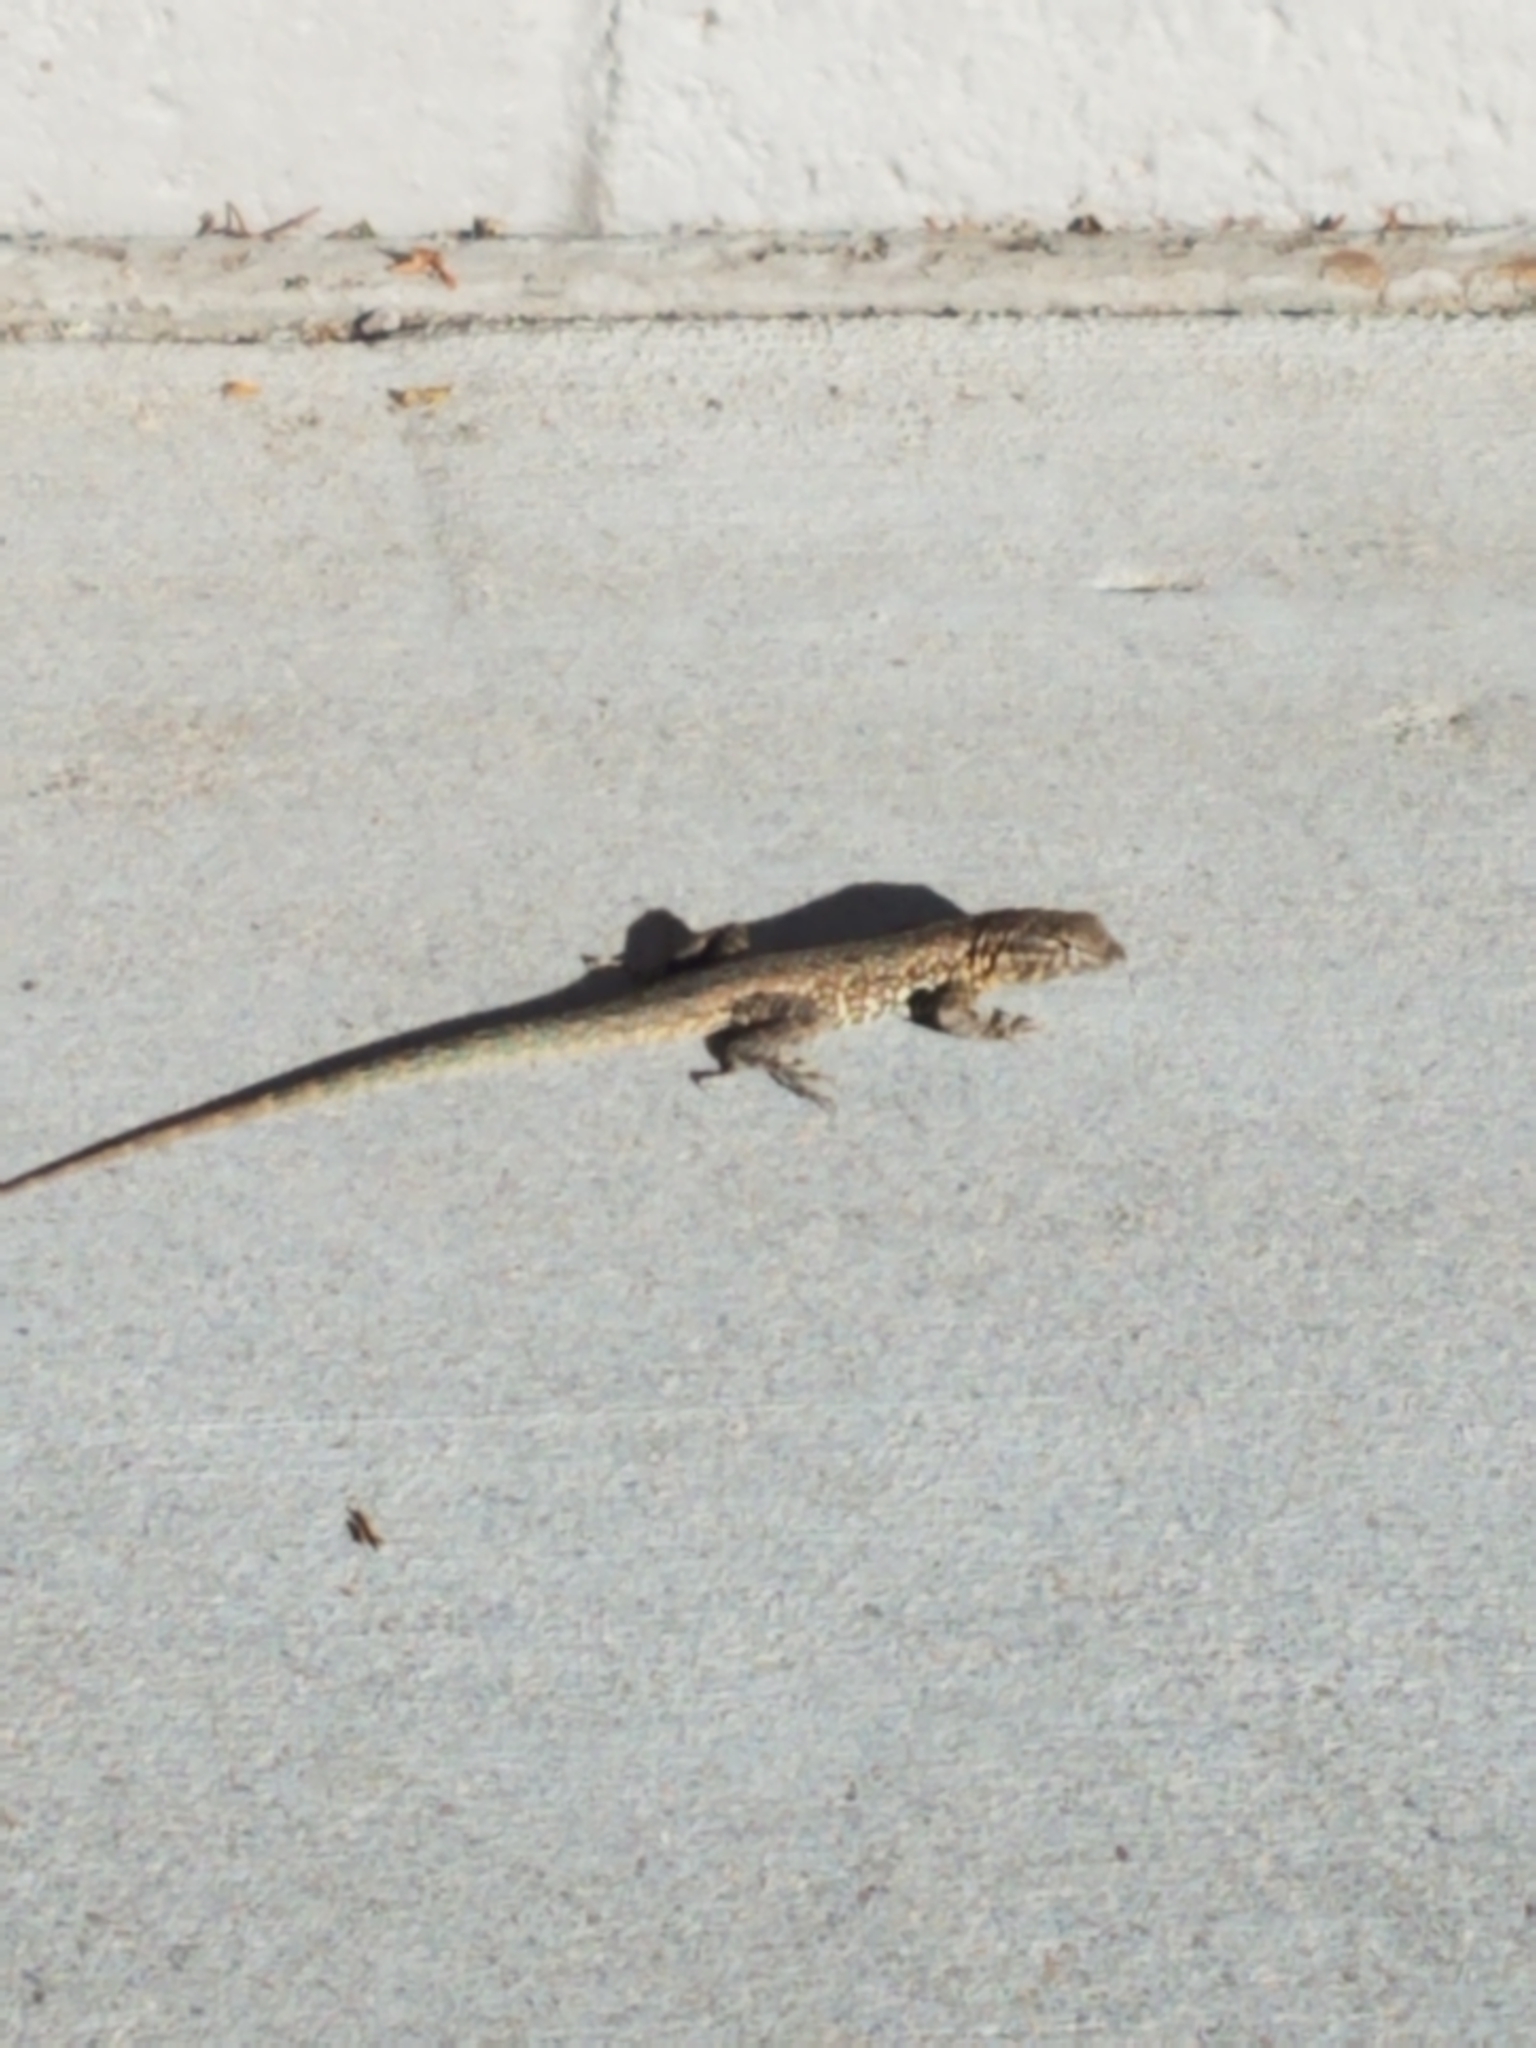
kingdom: Animalia
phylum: Chordata
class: Squamata
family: Phrynosomatidae
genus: Uta
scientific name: Uta stansburiana
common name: Side-blotched lizard
